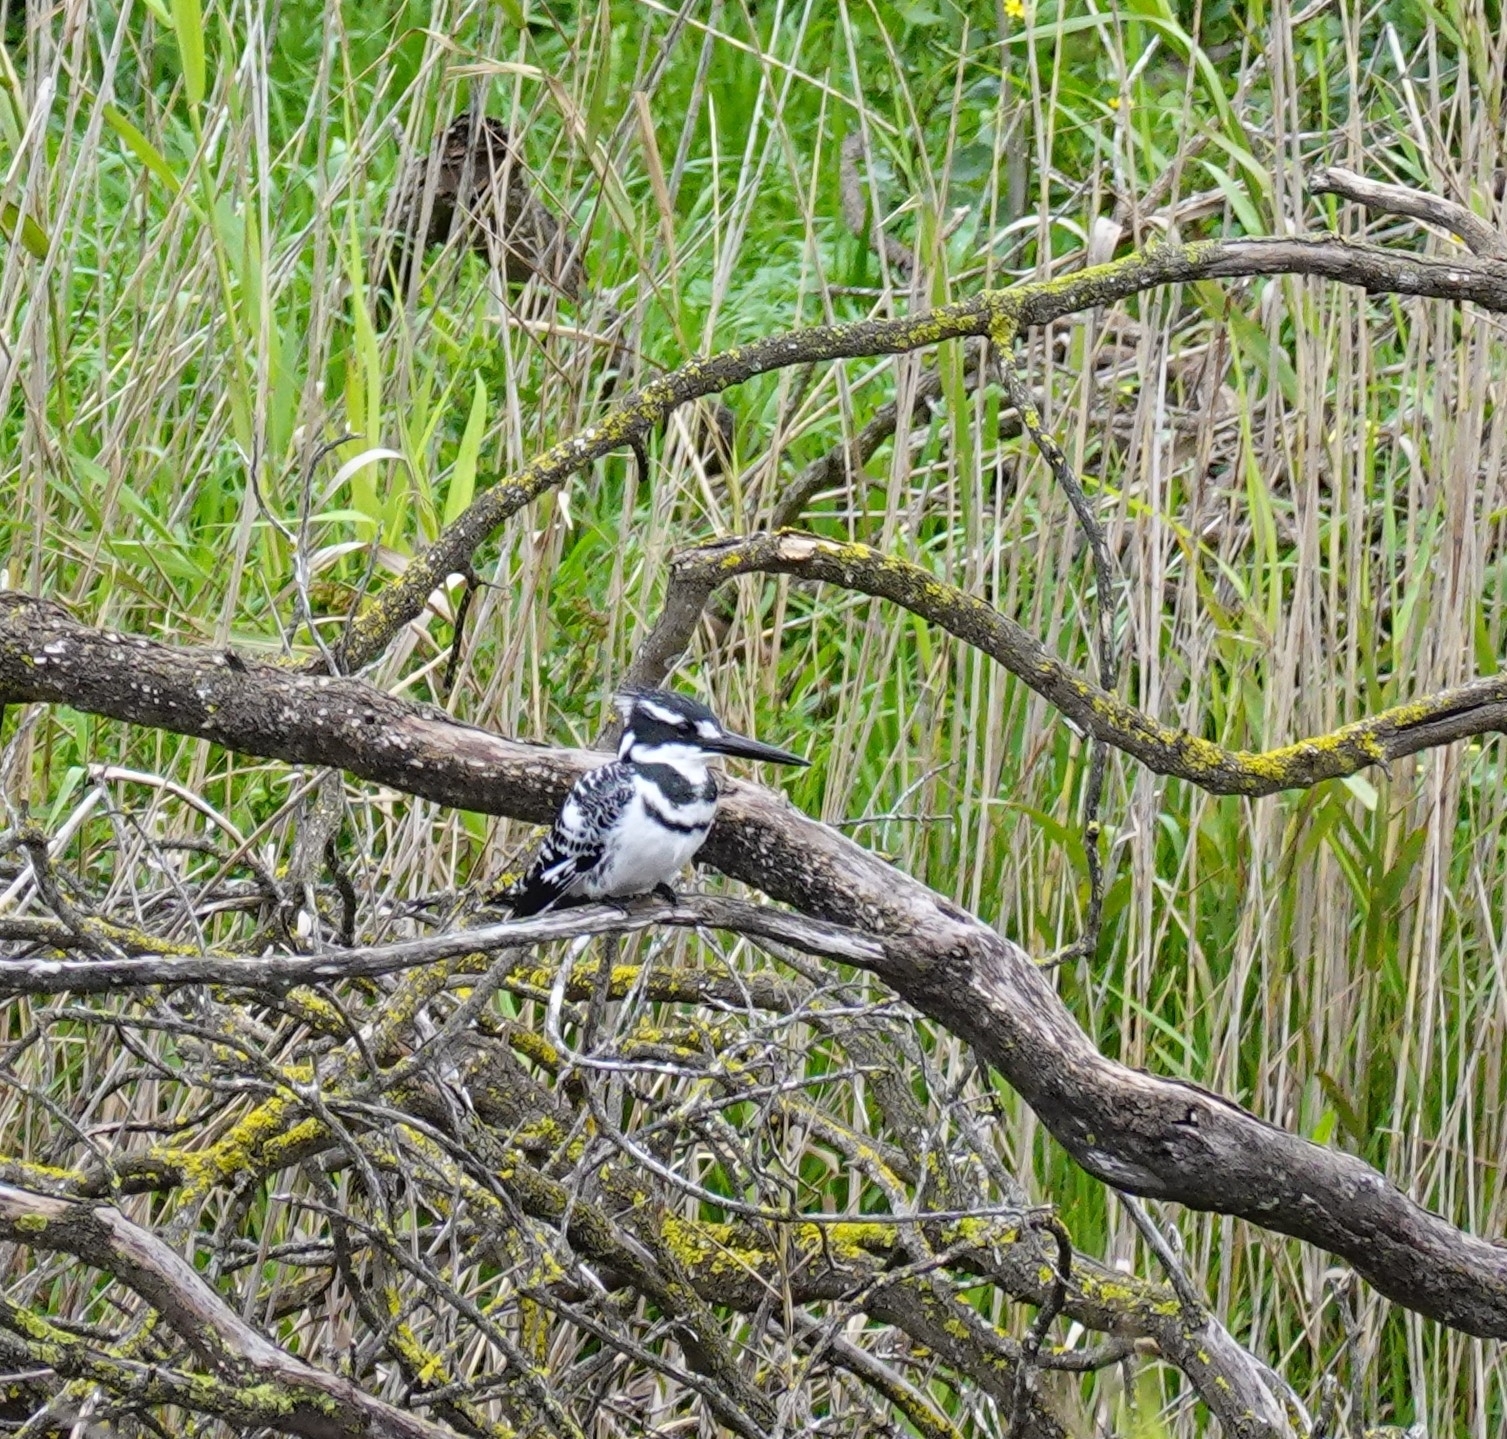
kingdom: Animalia
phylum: Chordata
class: Aves
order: Coraciiformes
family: Alcedinidae
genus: Ceryle
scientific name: Ceryle rudis
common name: Pied kingfisher
